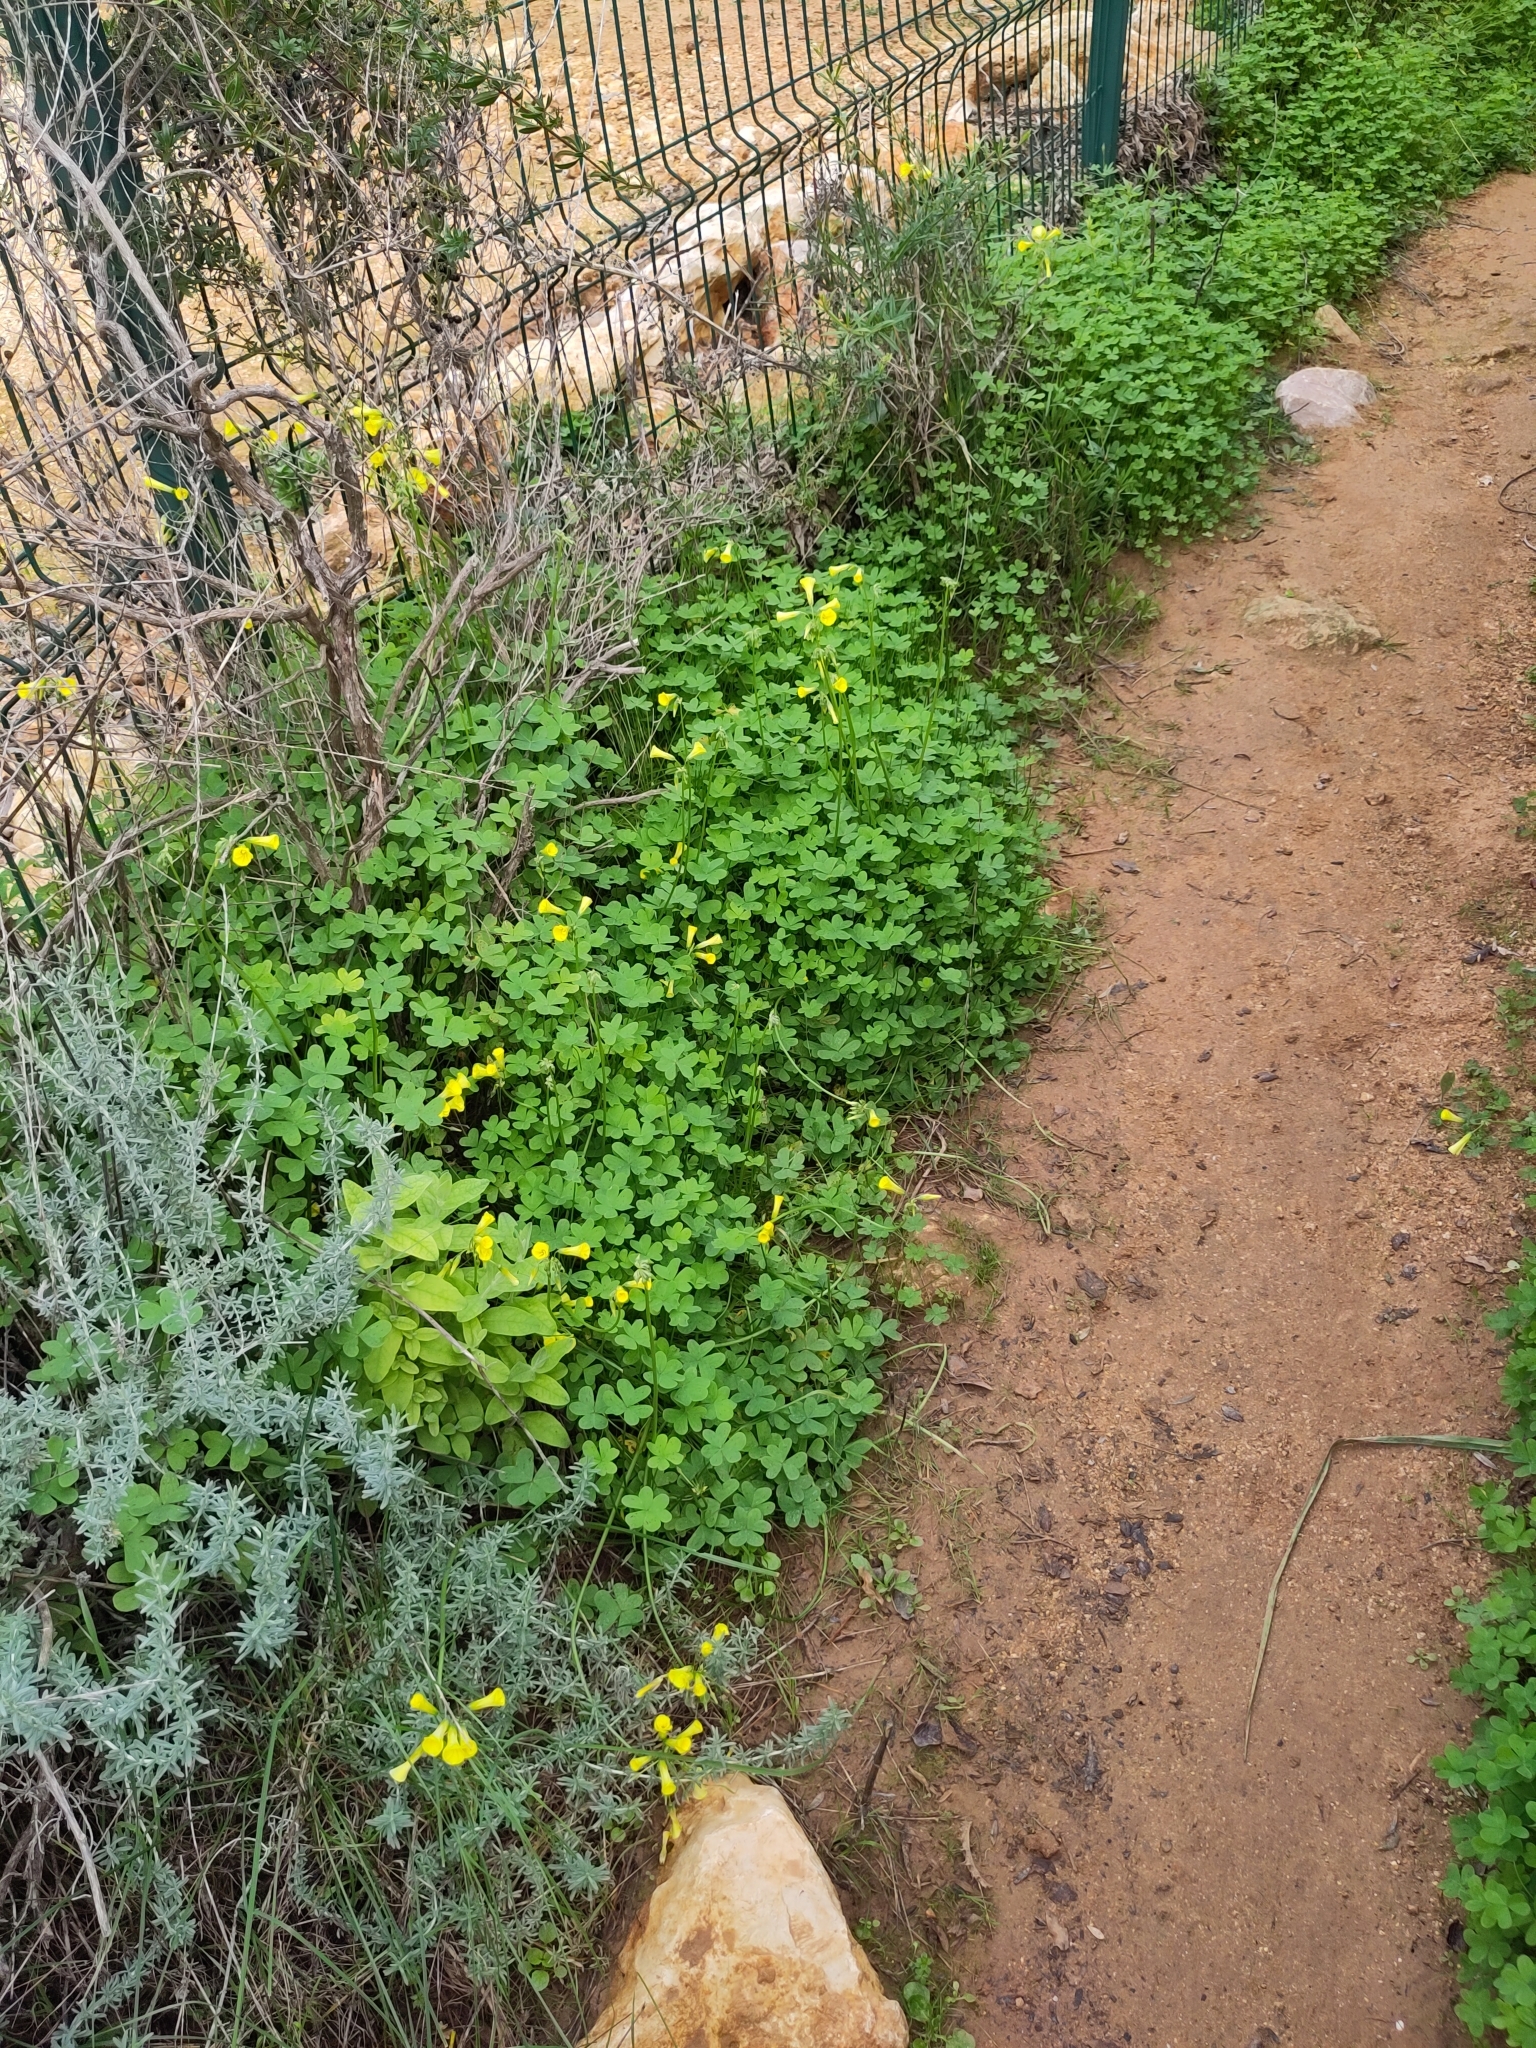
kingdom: Plantae
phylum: Tracheophyta
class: Magnoliopsida
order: Oxalidales
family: Oxalidaceae
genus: Oxalis
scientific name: Oxalis pes-caprae
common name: Bermuda-buttercup
